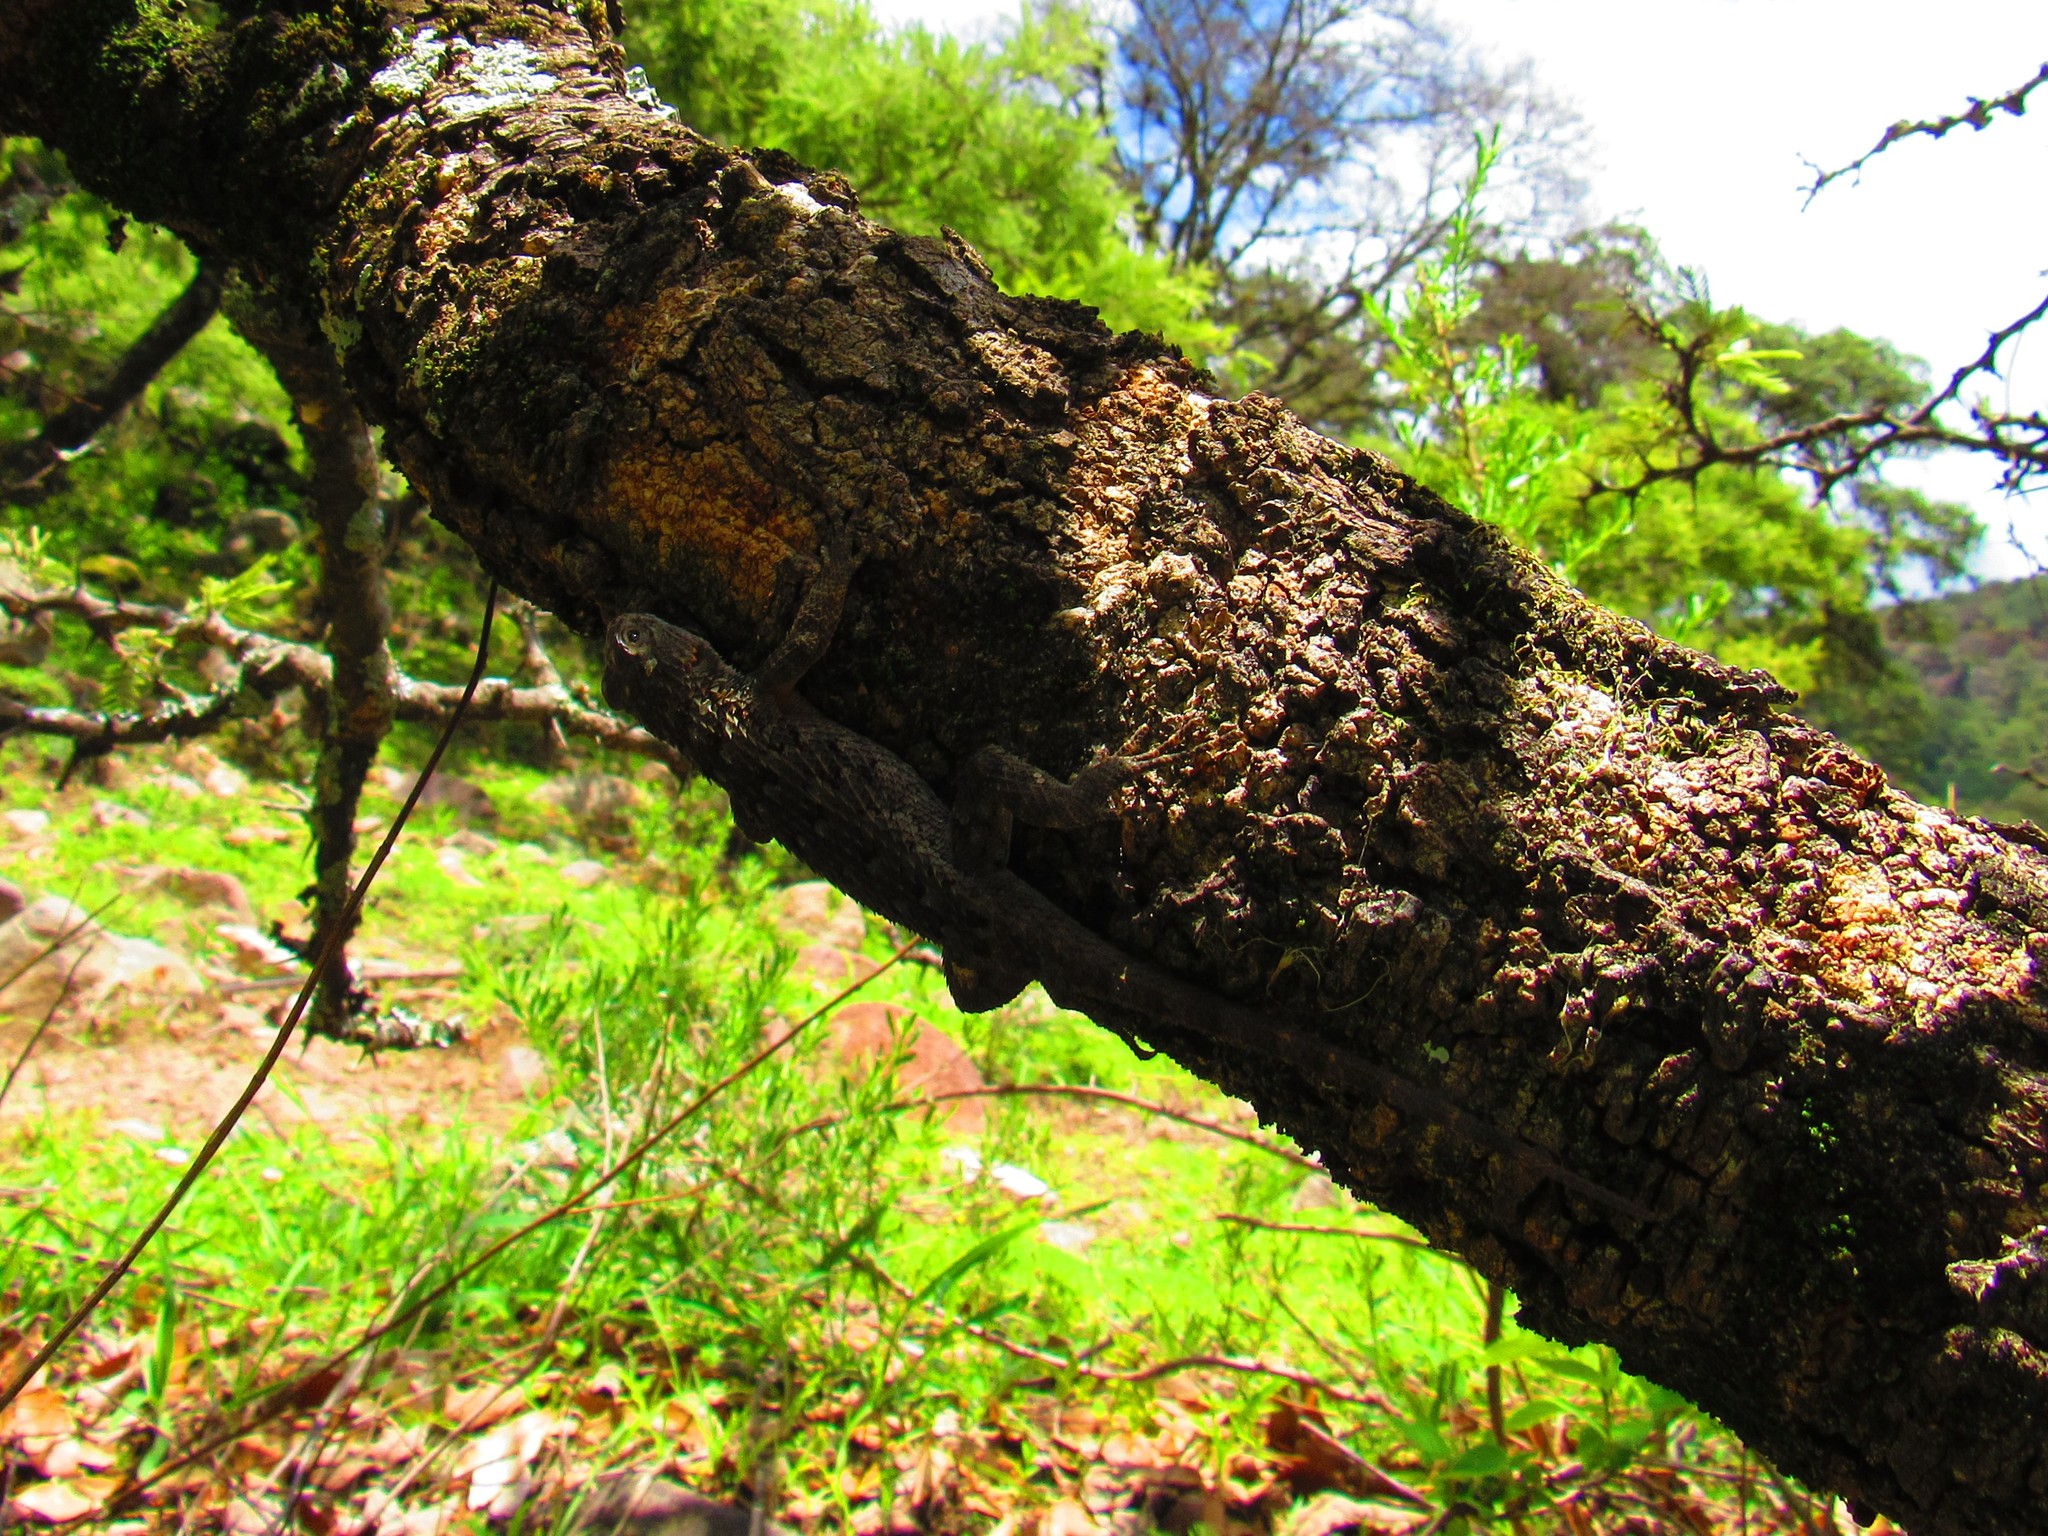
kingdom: Animalia
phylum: Chordata
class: Squamata
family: Phrynosomatidae
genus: Sceloporus
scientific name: Sceloporus spinosus
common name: Blue-spotted spiny lizard [caeruleopunctatus]
